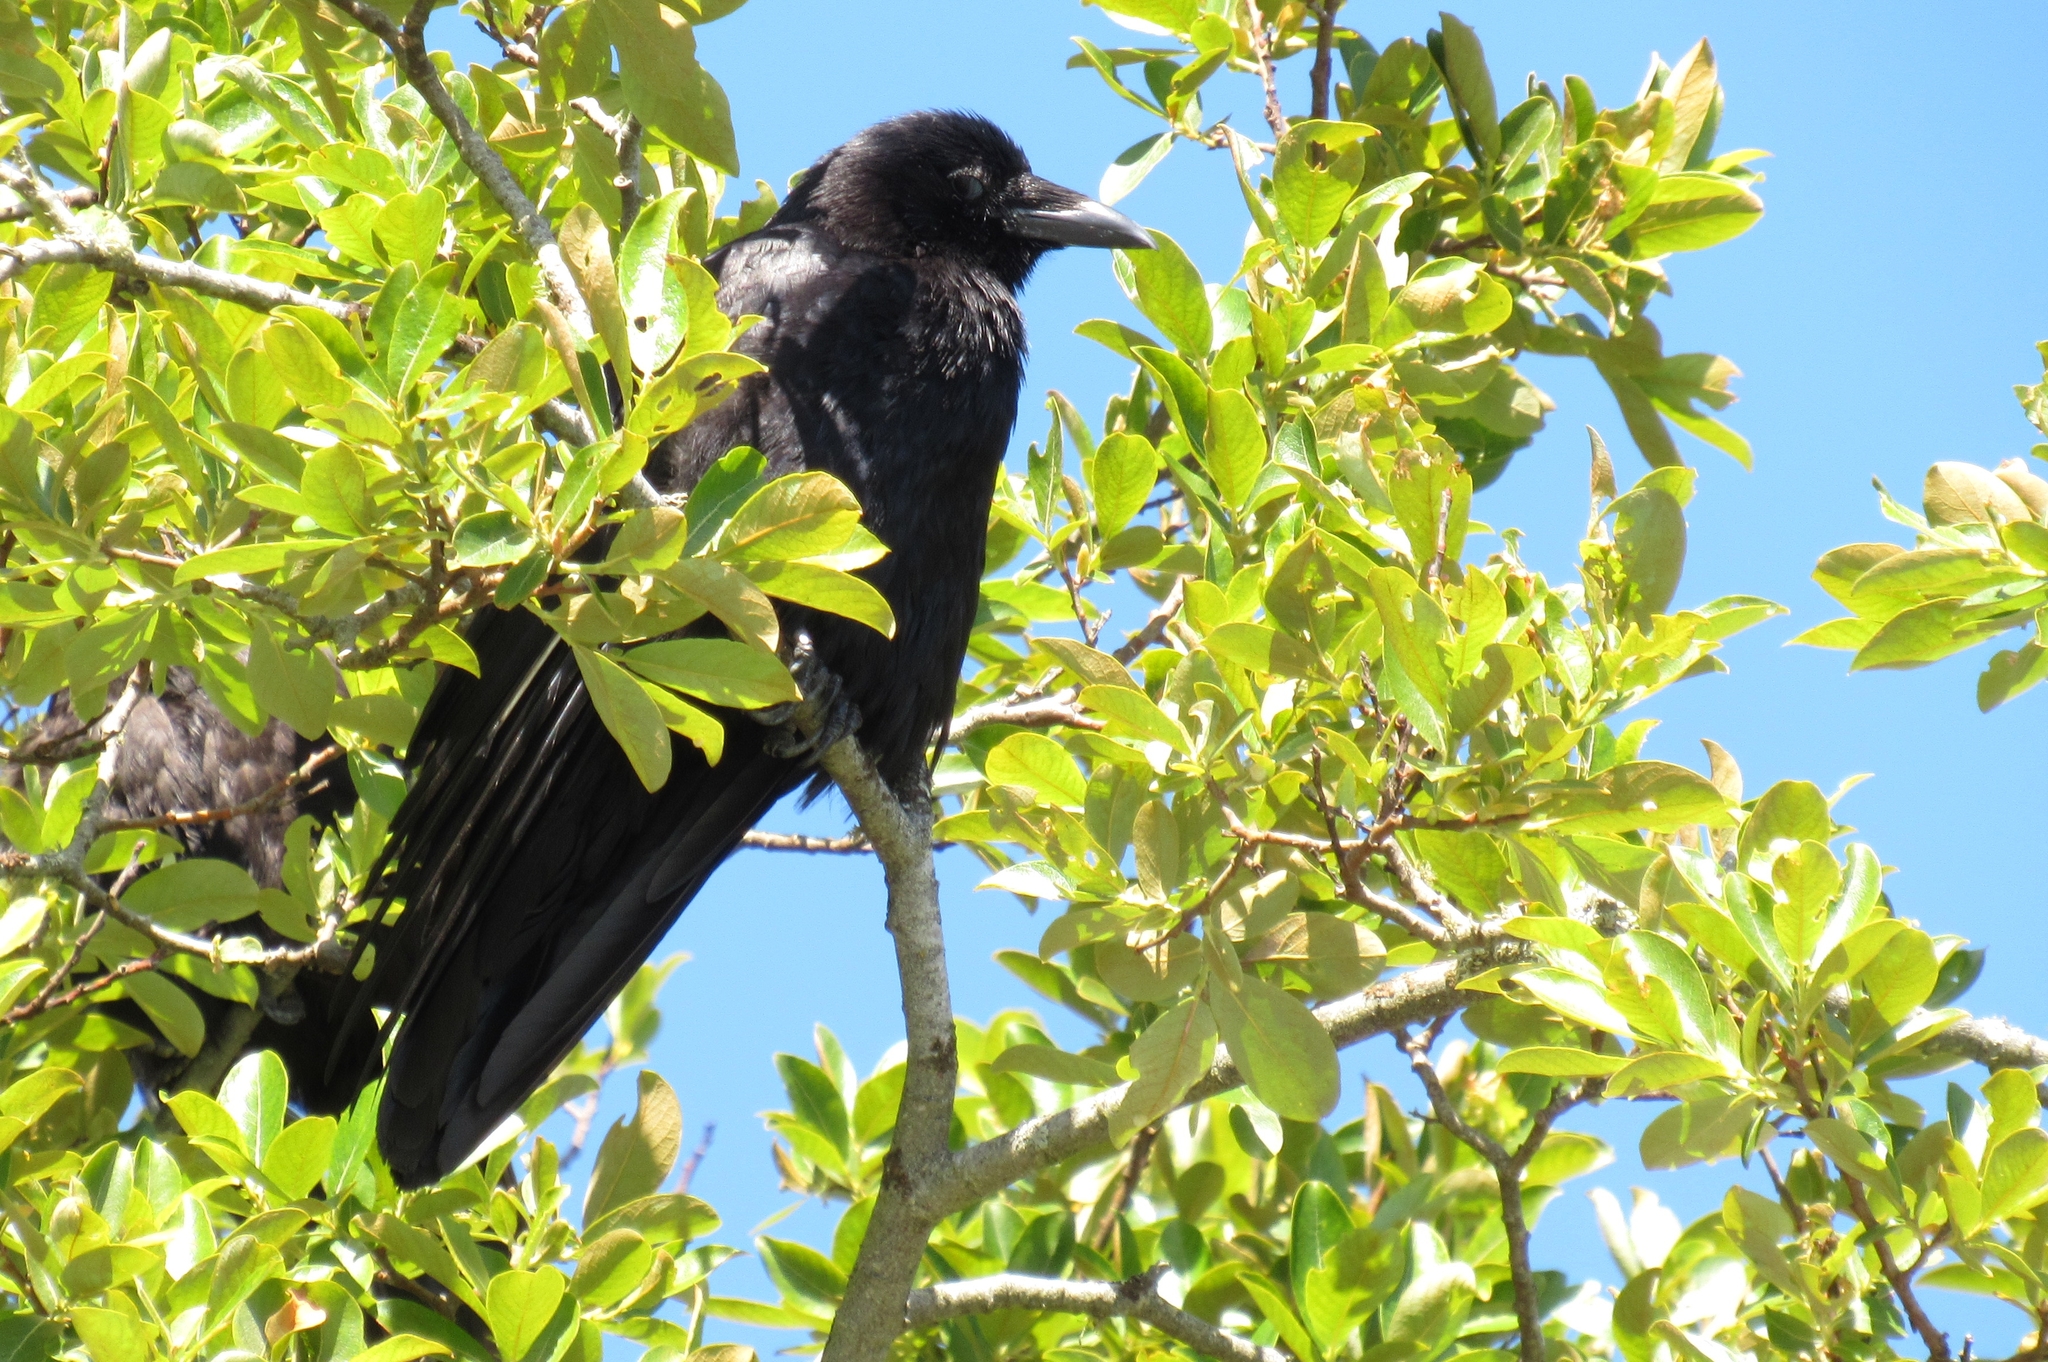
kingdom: Animalia
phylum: Chordata
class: Aves
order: Passeriformes
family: Corvidae
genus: Corvus
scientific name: Corvus brachyrhynchos
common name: American crow
